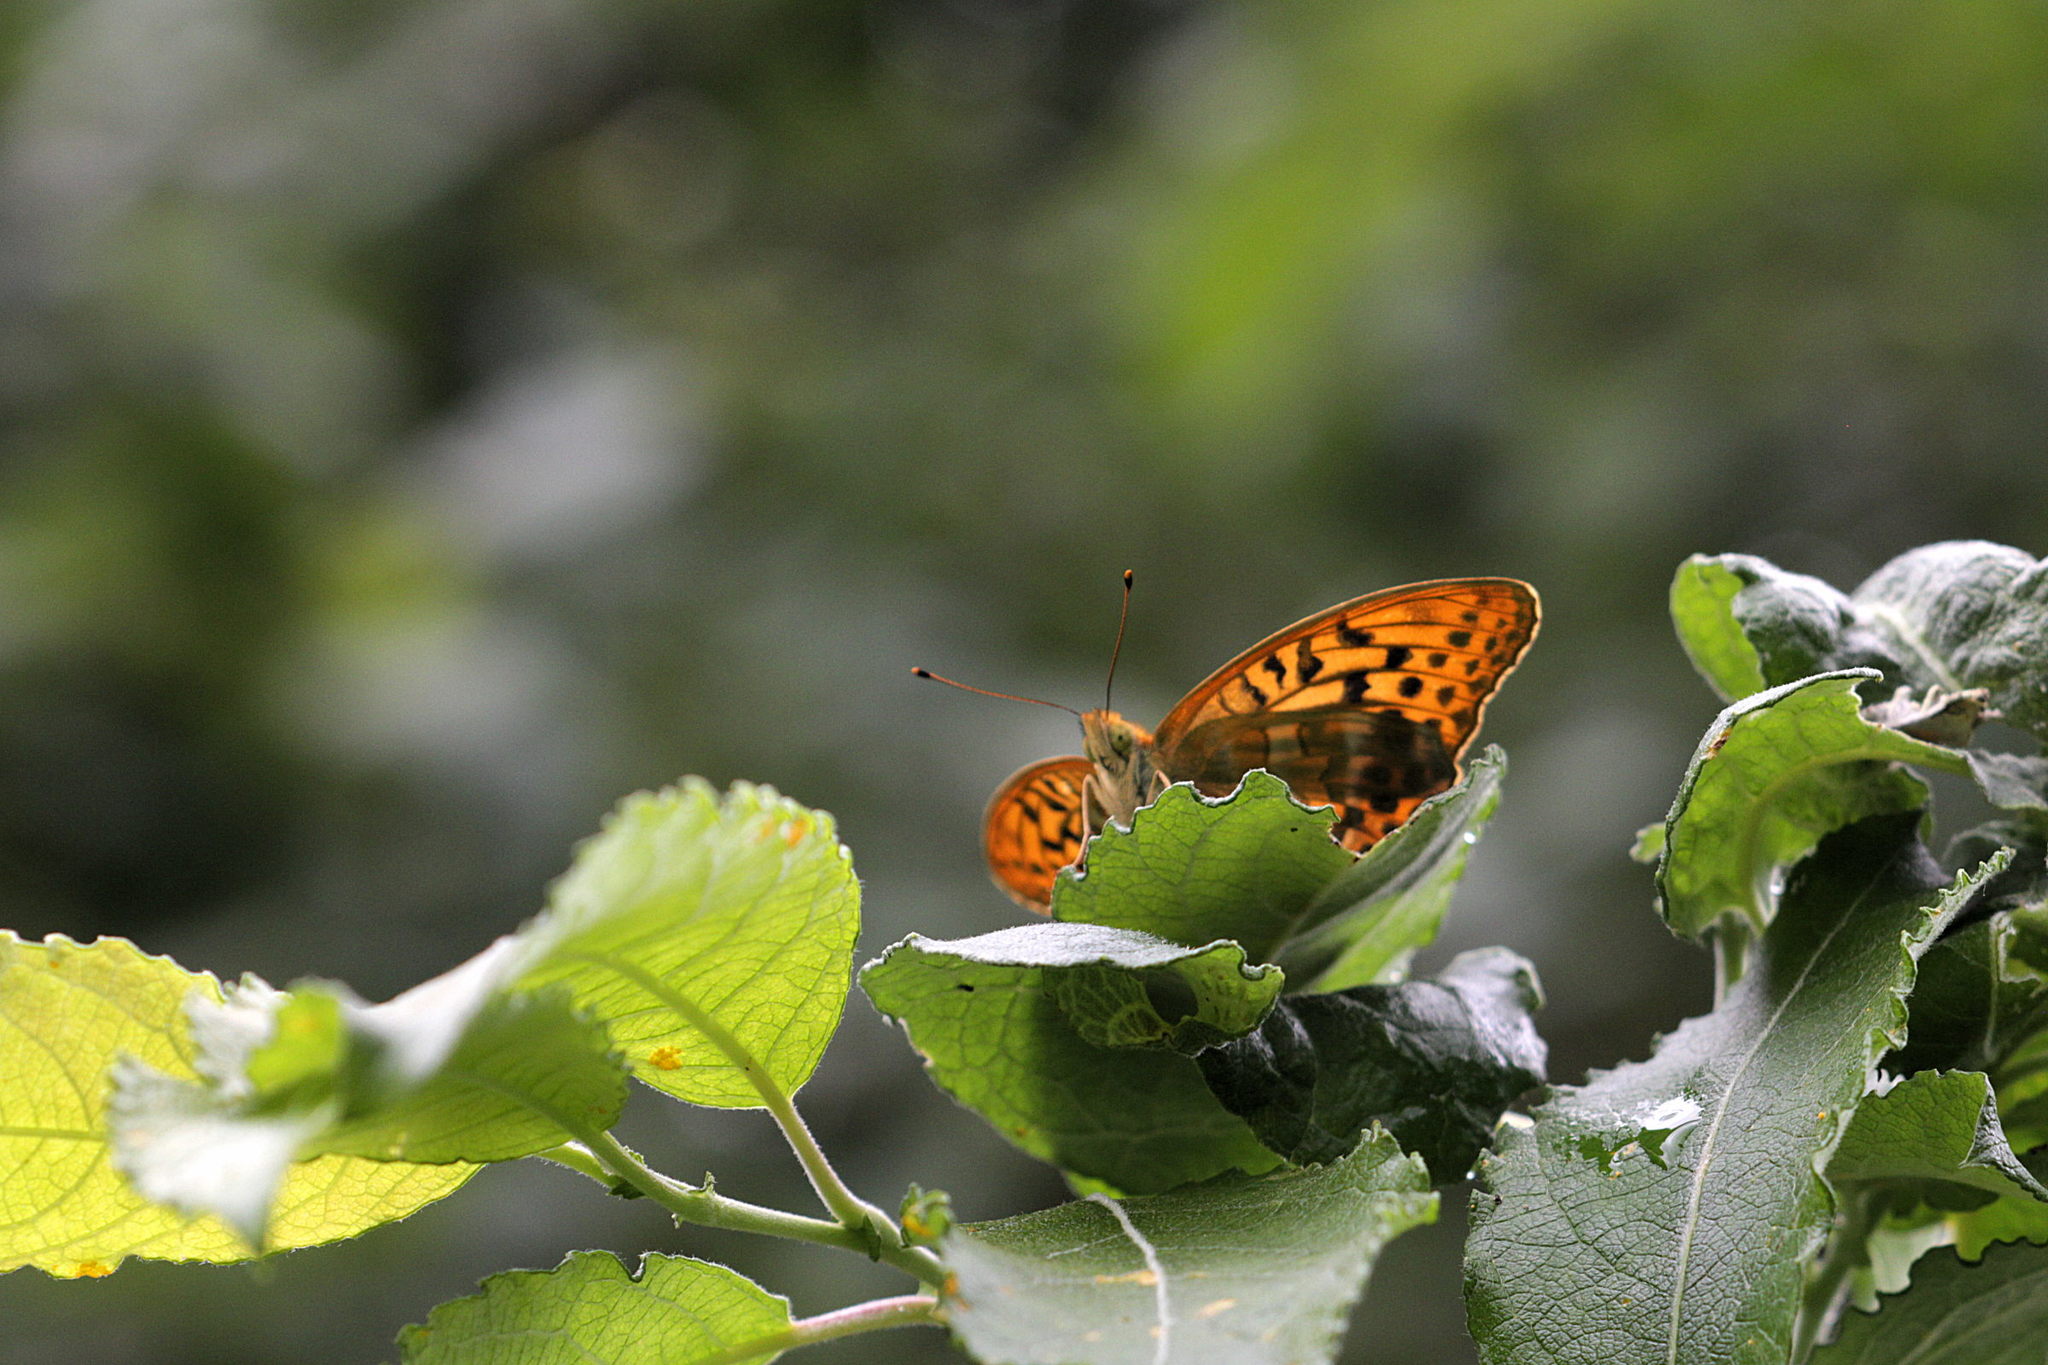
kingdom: Animalia
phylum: Arthropoda
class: Insecta
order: Lepidoptera
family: Nymphalidae
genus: Argynnis
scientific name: Argynnis paphia
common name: Silver-washed fritillary
